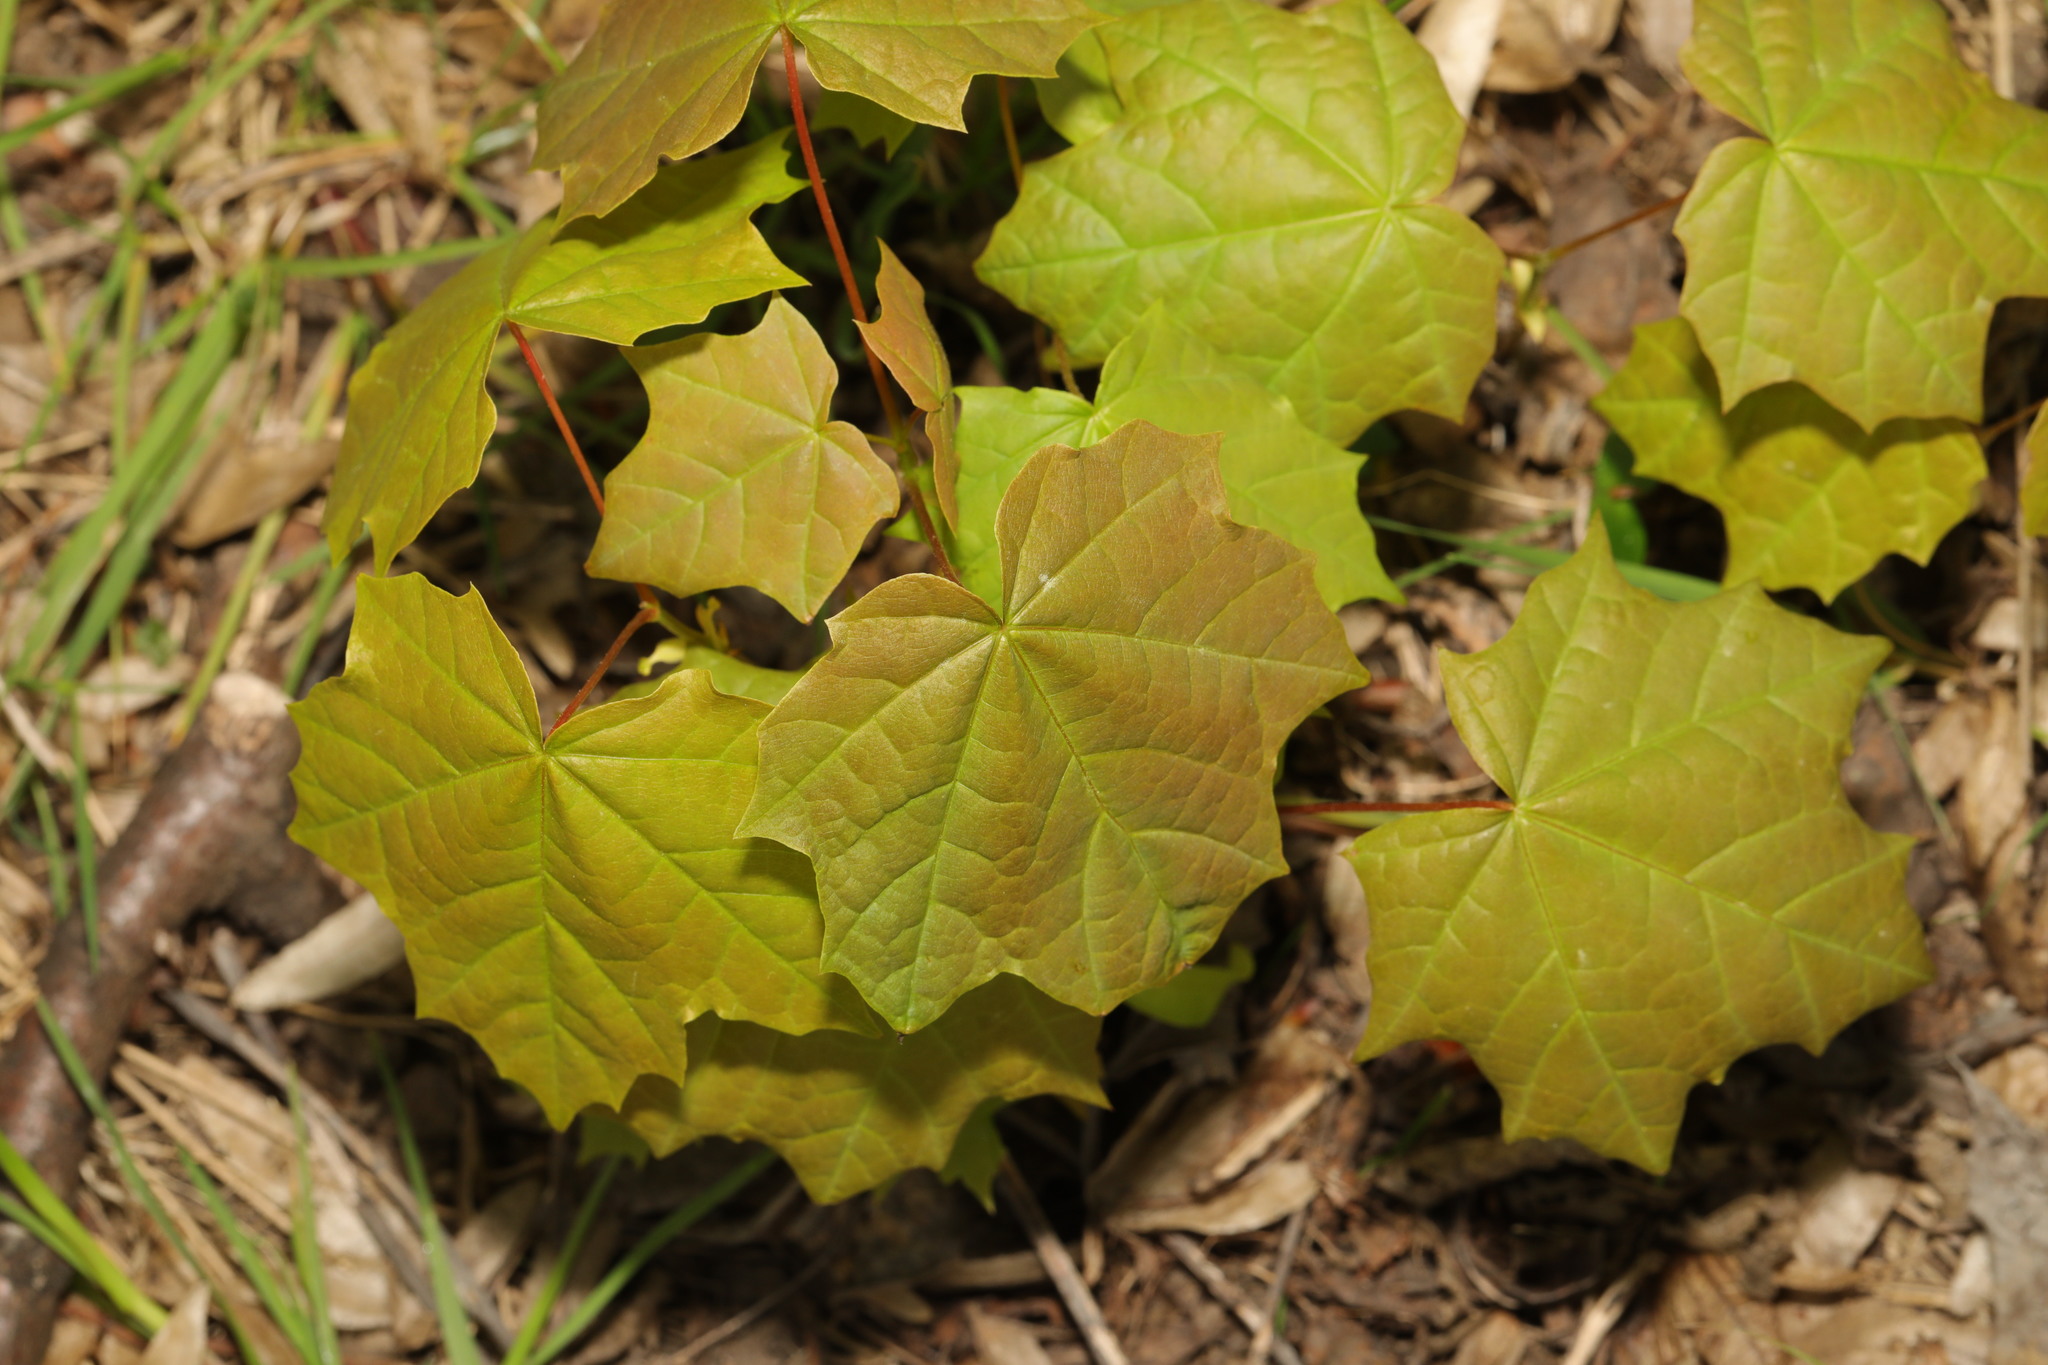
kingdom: Plantae
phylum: Tracheophyta
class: Magnoliopsida
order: Sapindales
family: Sapindaceae
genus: Acer
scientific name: Acer platanoides
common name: Norway maple
